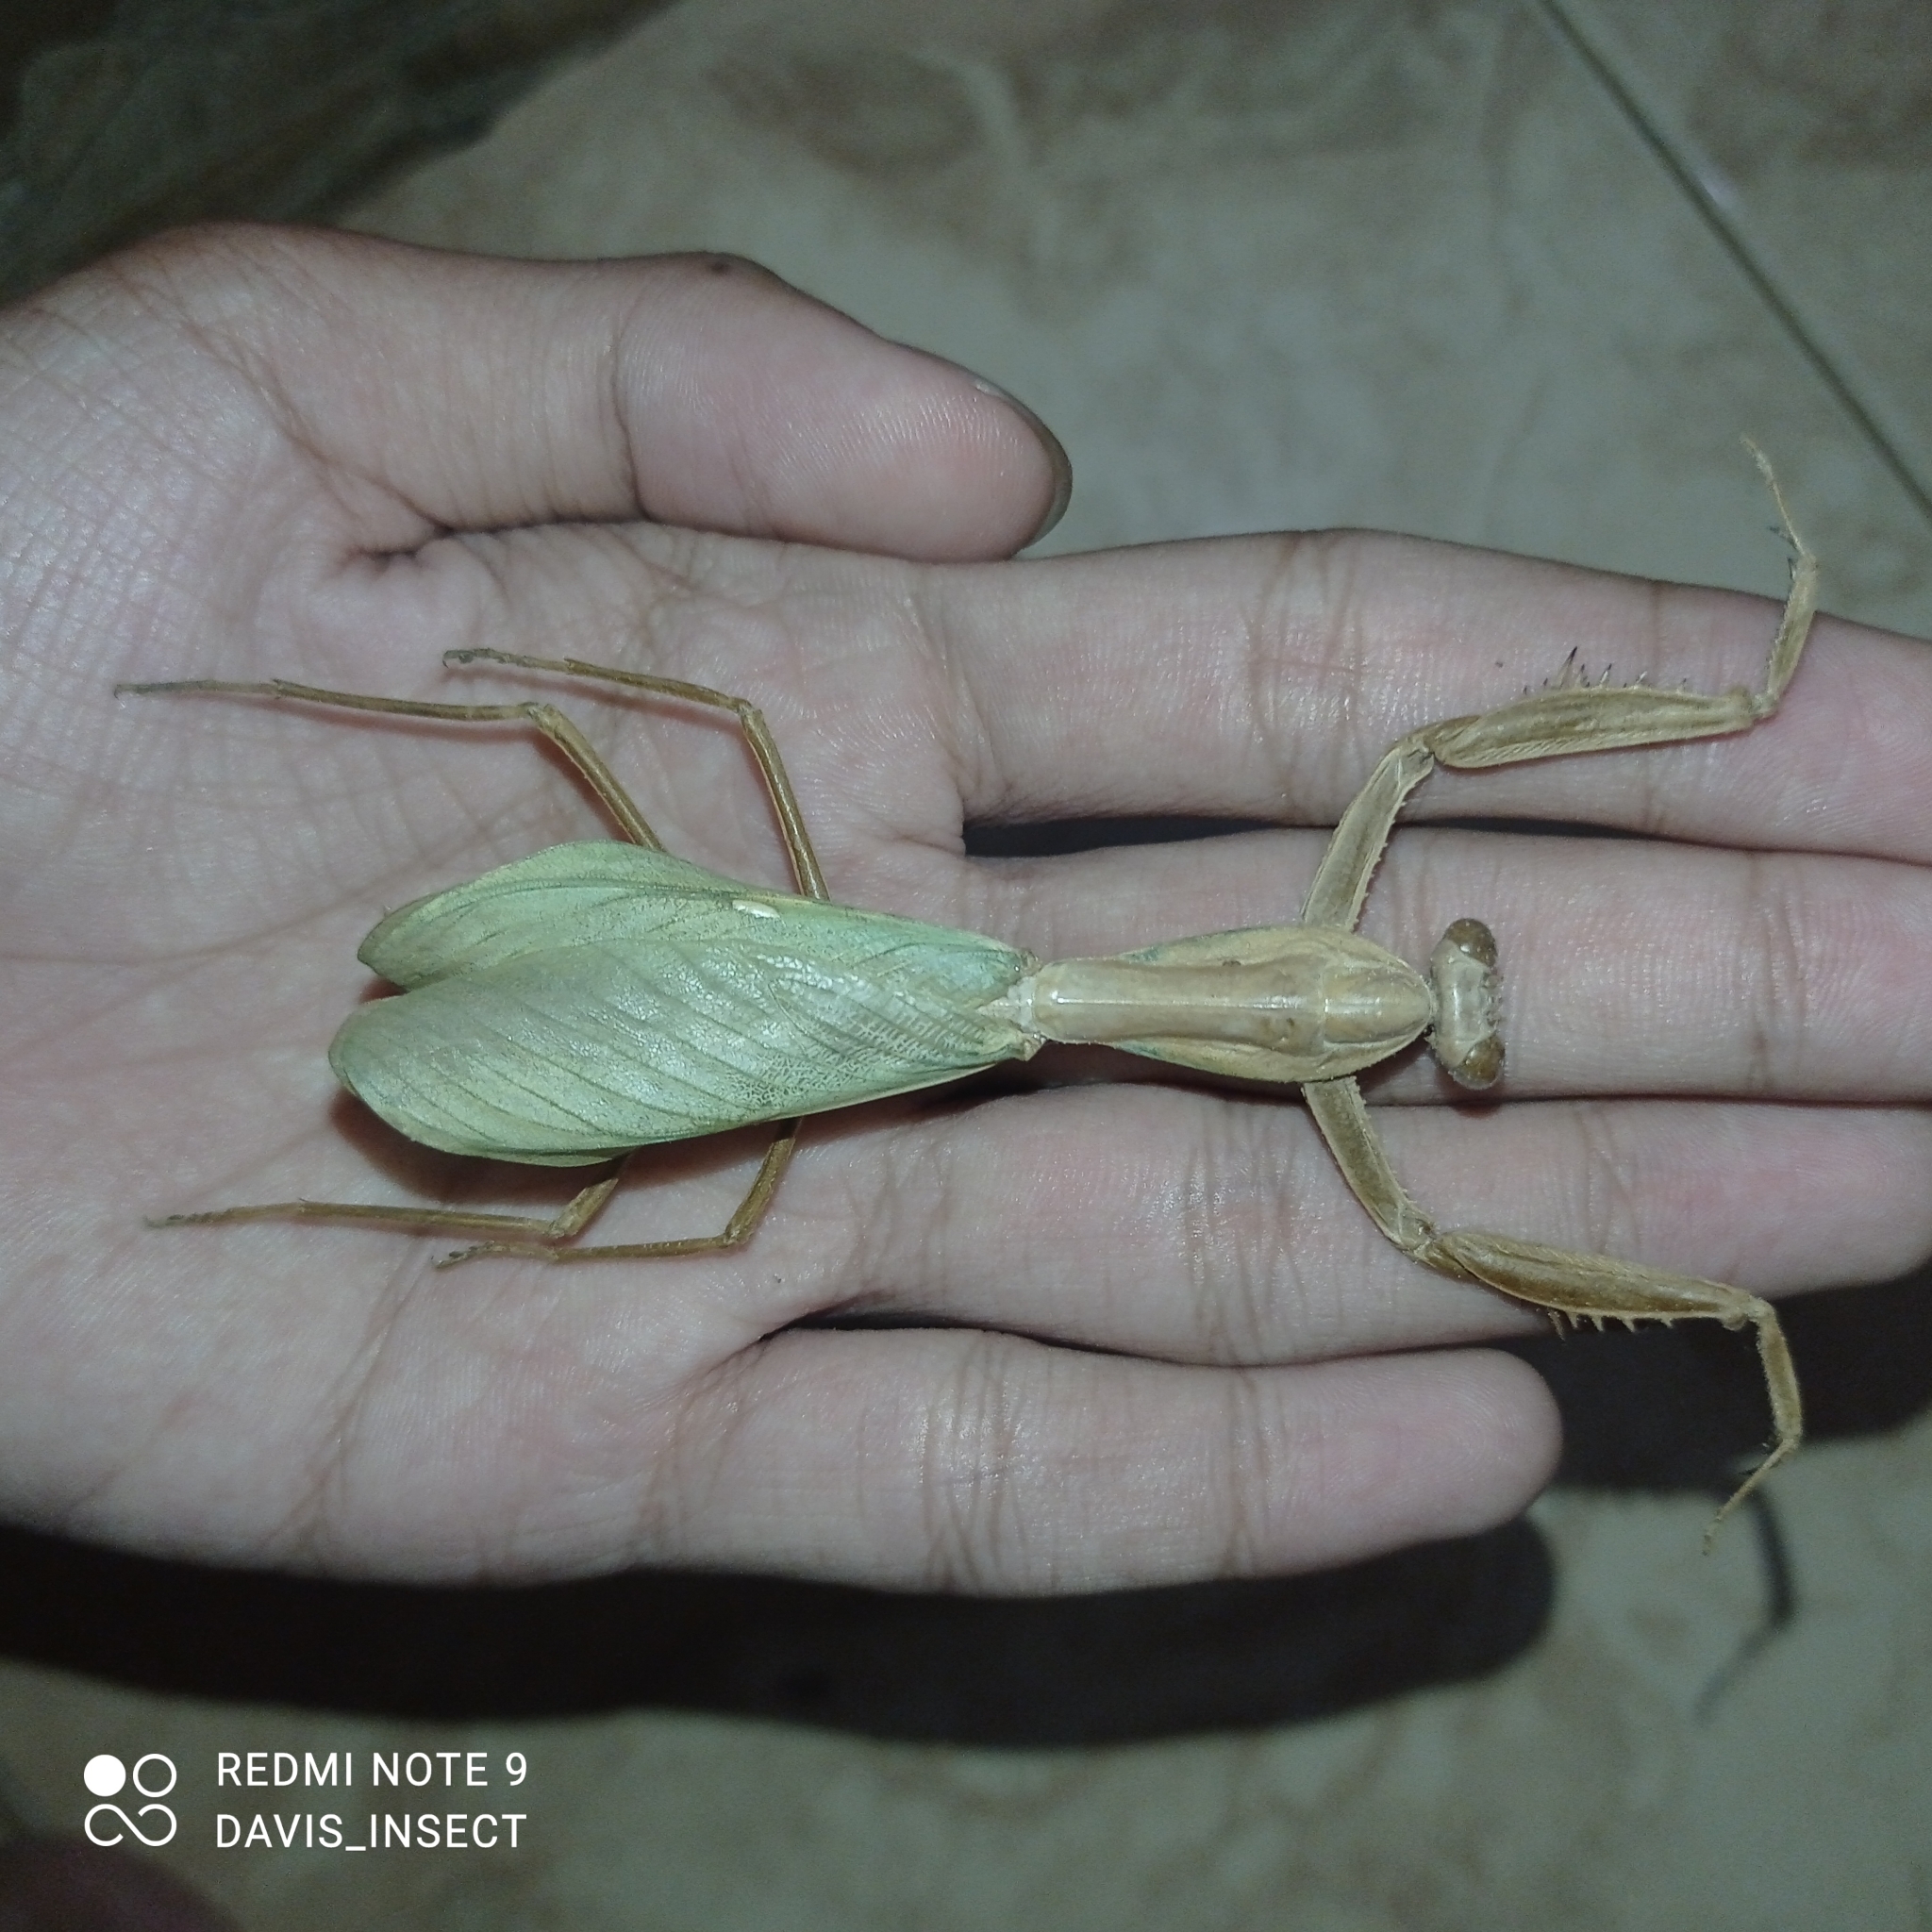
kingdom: Animalia
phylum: Arthropoda
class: Insecta
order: Mantodea
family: Mantidae
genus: Rhombodera
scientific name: Rhombodera lingulata
